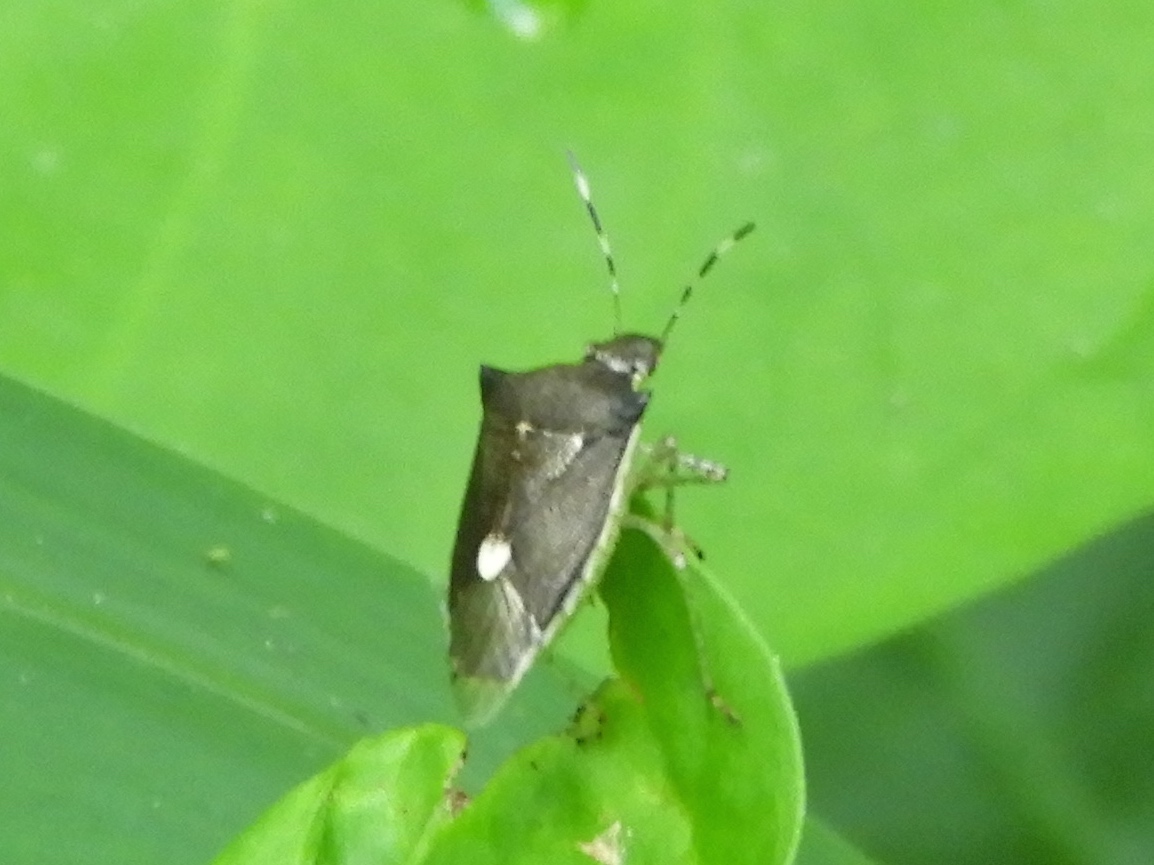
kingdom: Animalia
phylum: Arthropoda
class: Insecta
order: Hemiptera
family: Pentatomidae
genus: Mormidea
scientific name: Mormidea notulata
